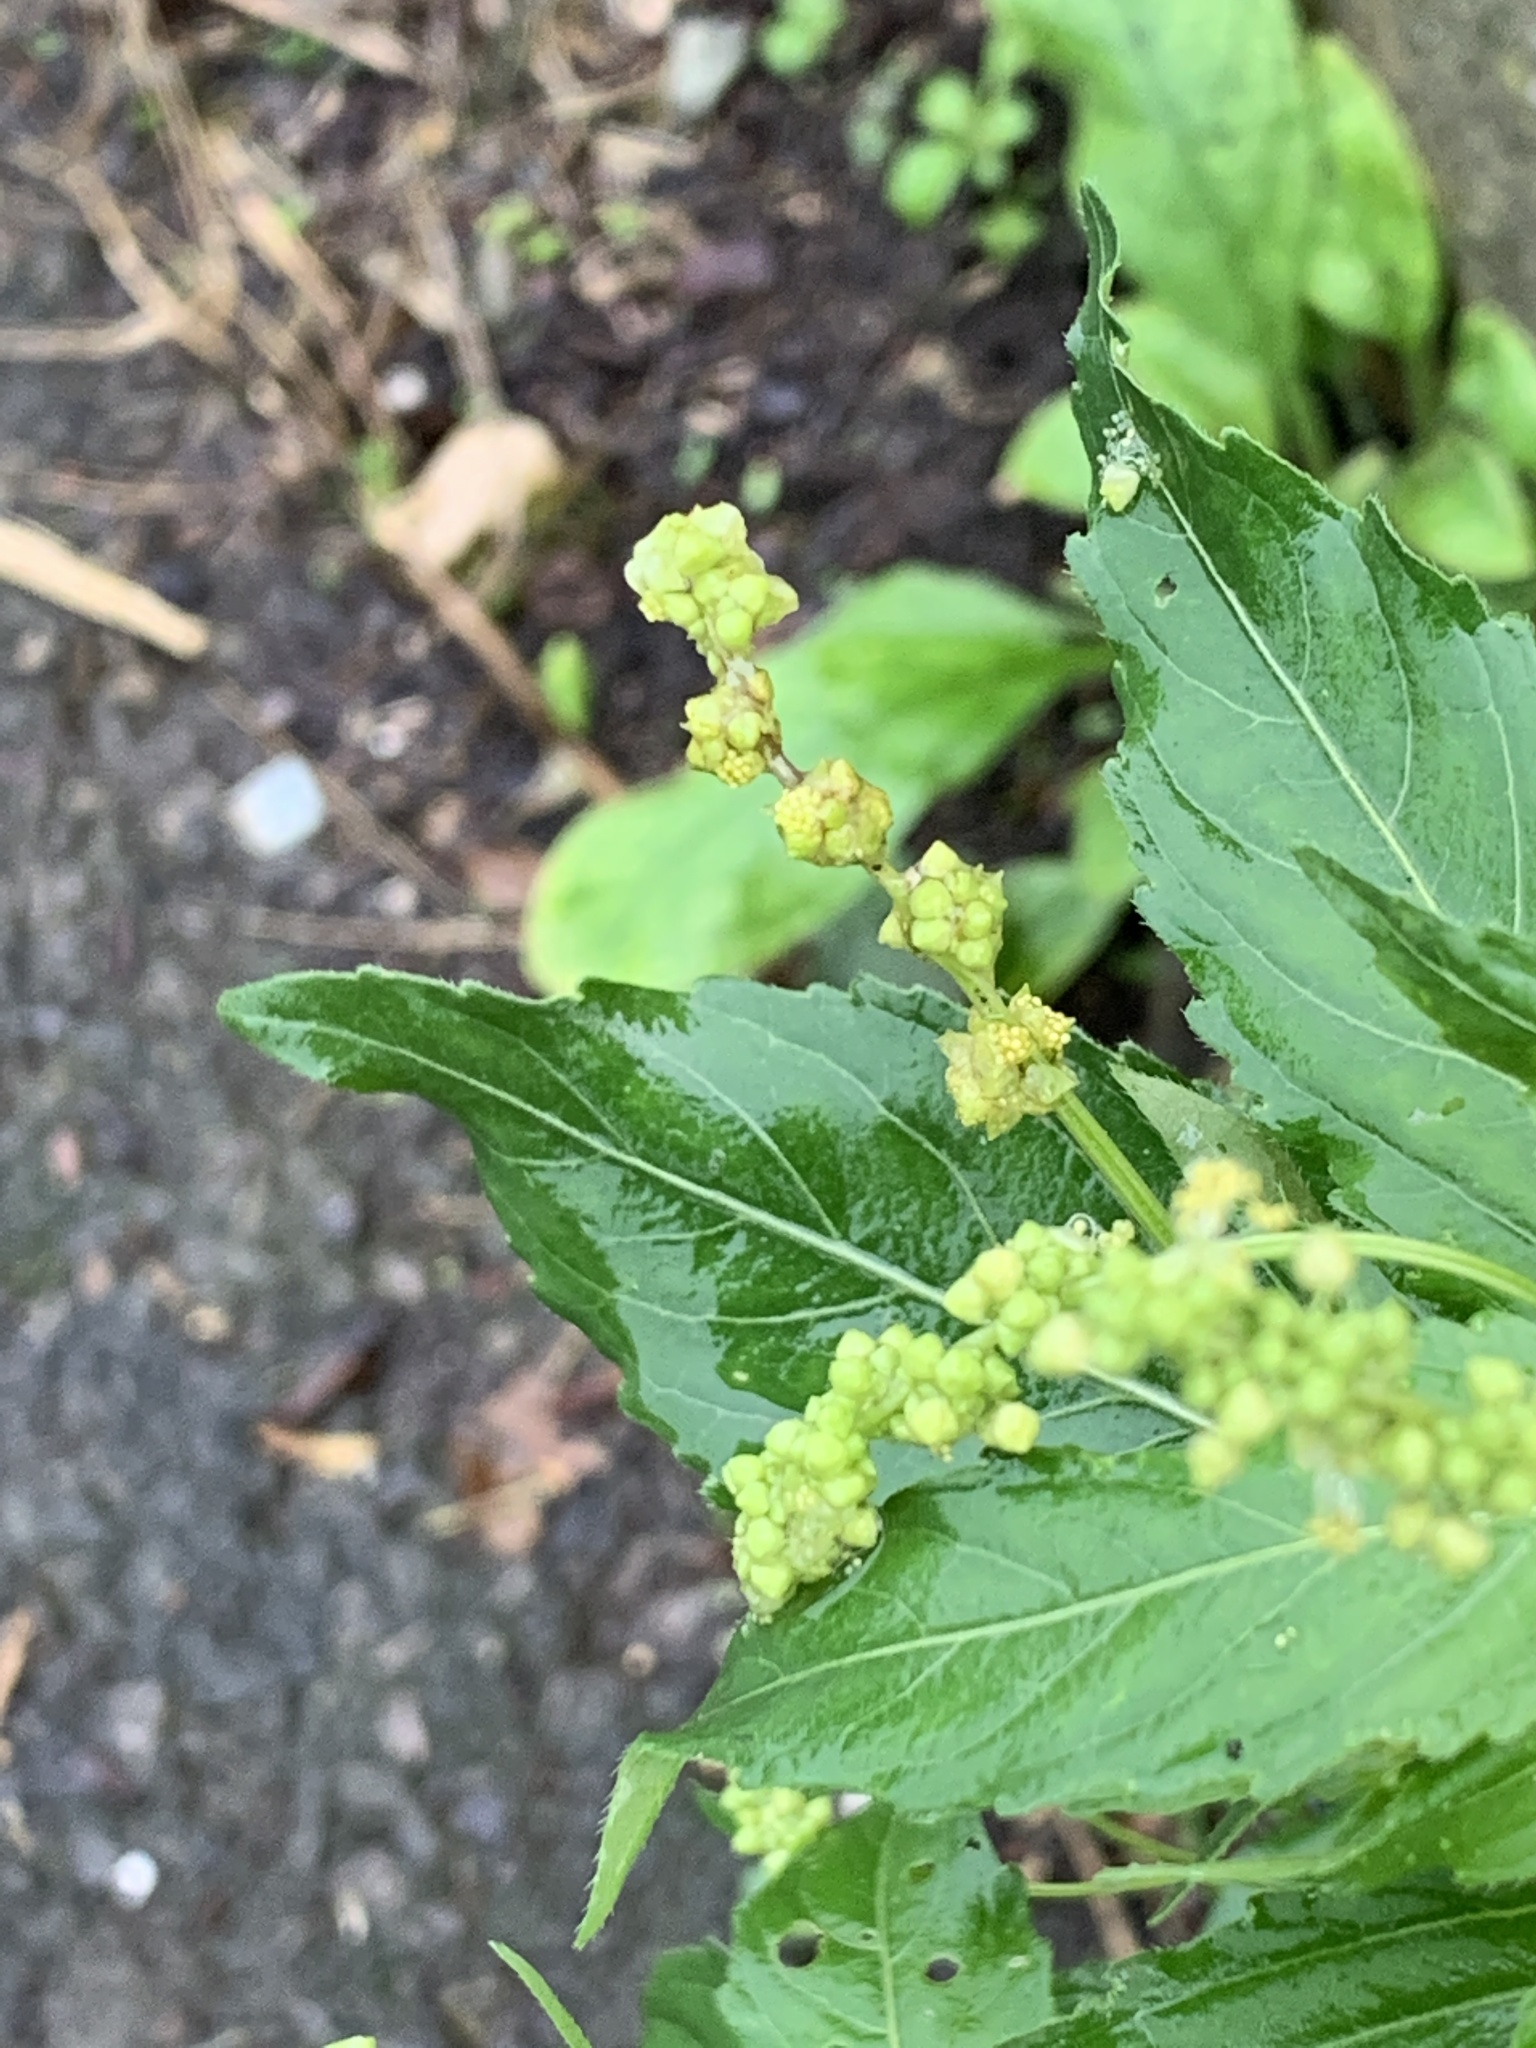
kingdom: Plantae
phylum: Tracheophyta
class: Magnoliopsida
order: Malpighiales
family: Euphorbiaceae
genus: Mercurialis
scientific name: Mercurialis annua
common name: Annual mercury
